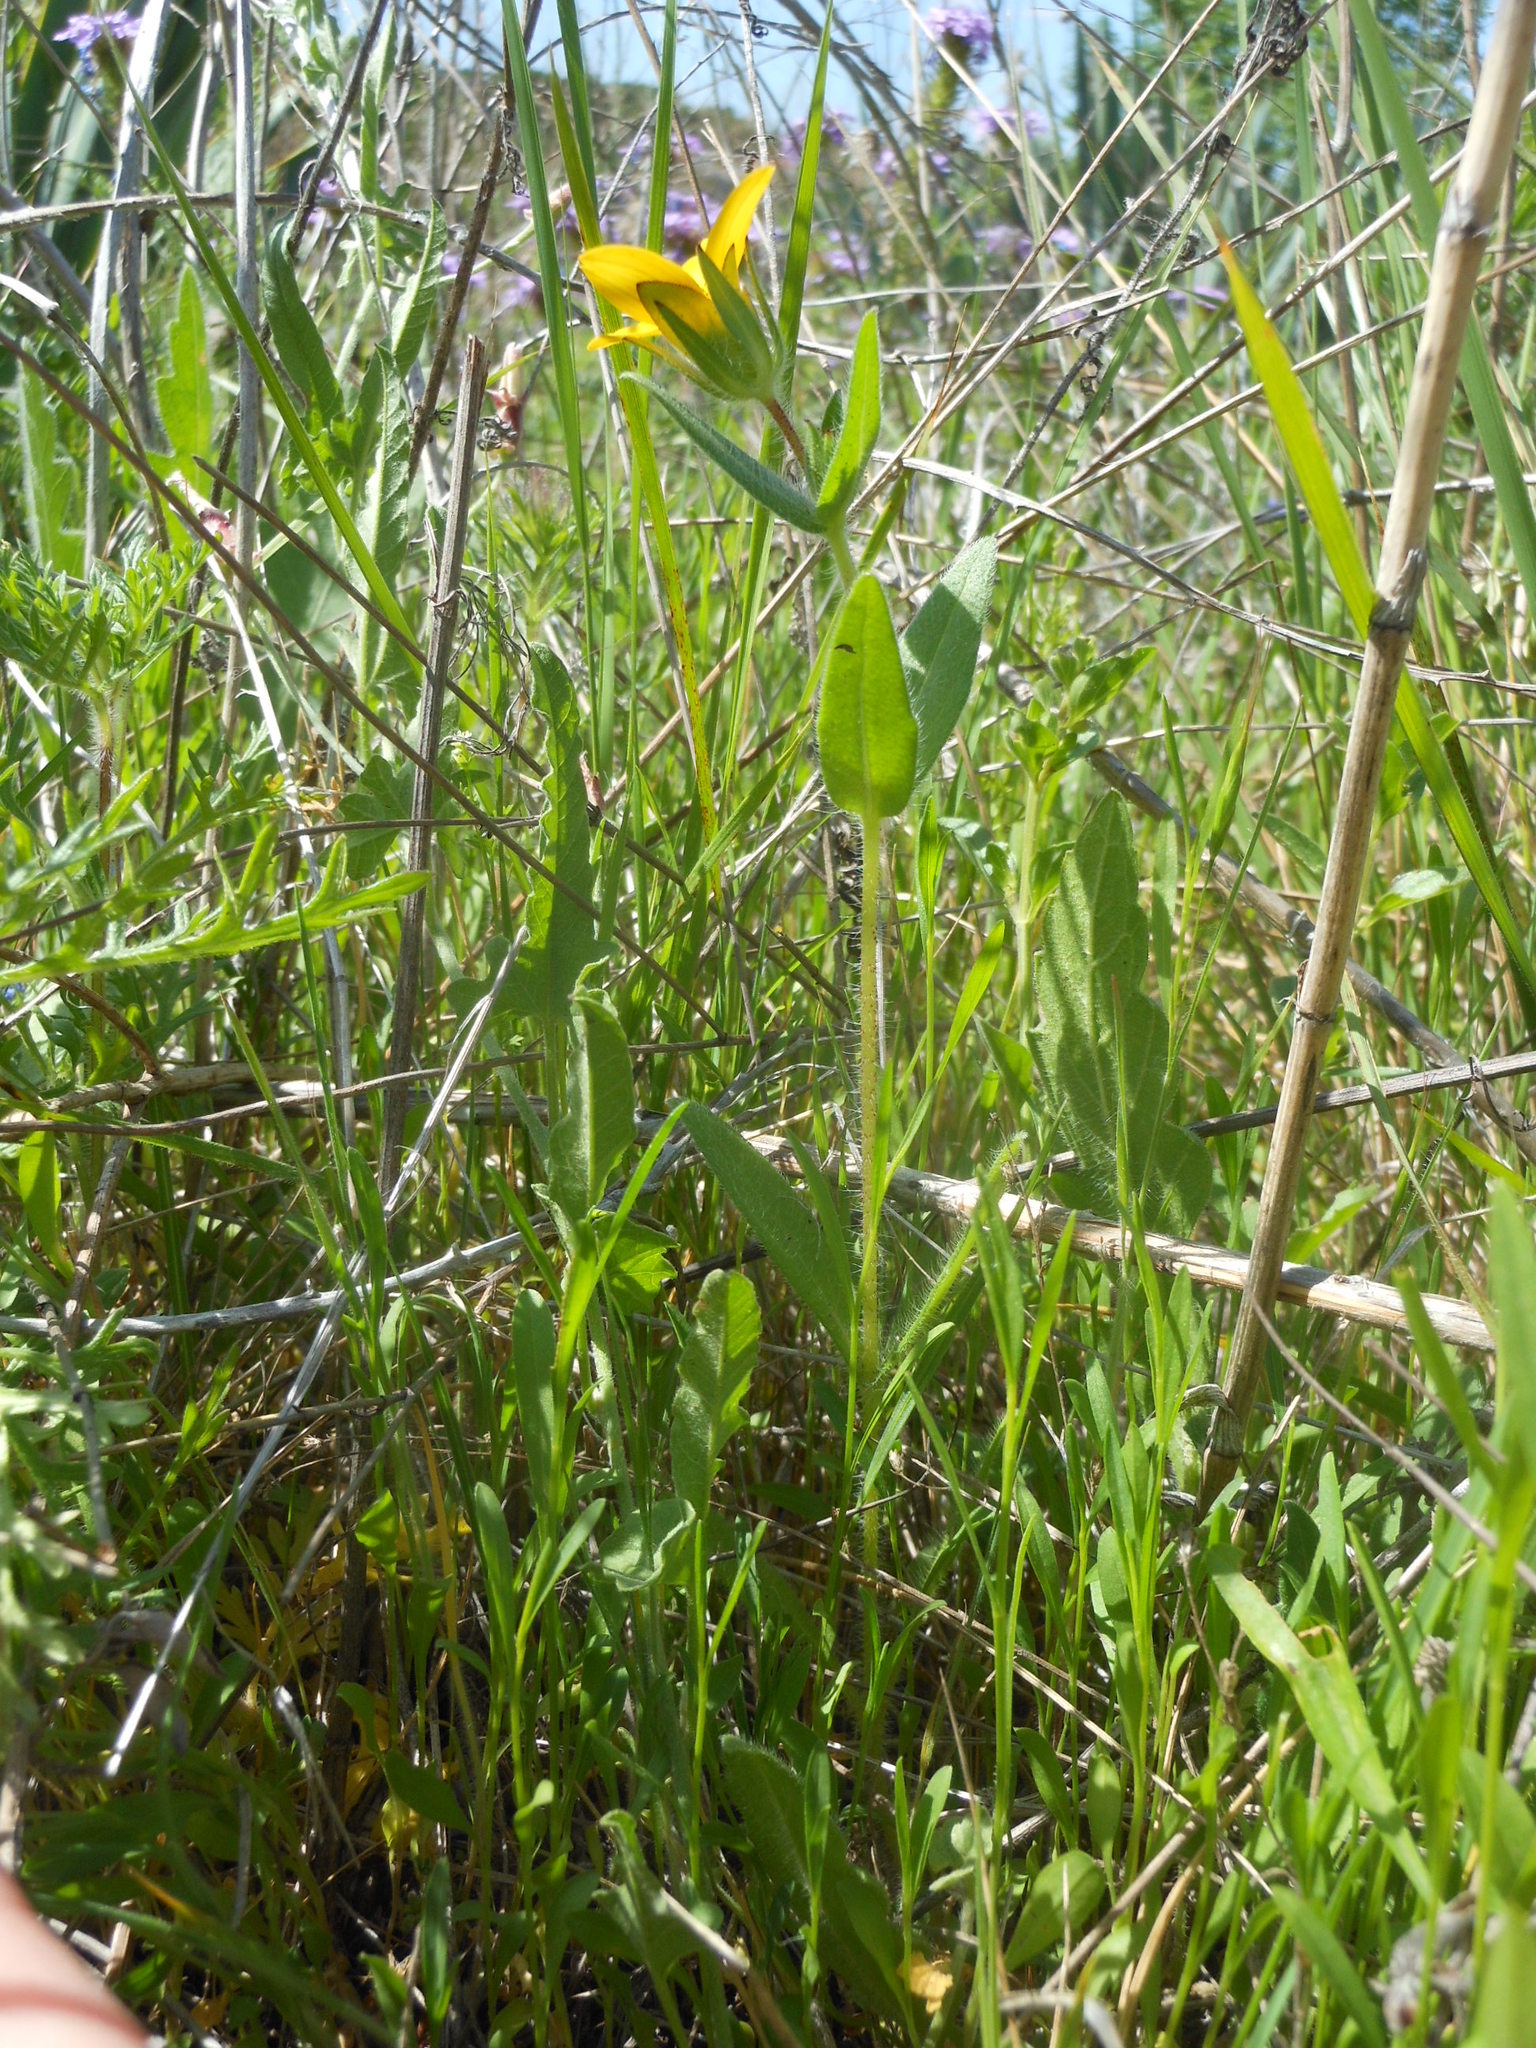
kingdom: Plantae
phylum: Tracheophyta
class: Magnoliopsida
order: Asterales
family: Asteraceae
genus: Lindheimera
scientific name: Lindheimera texana
